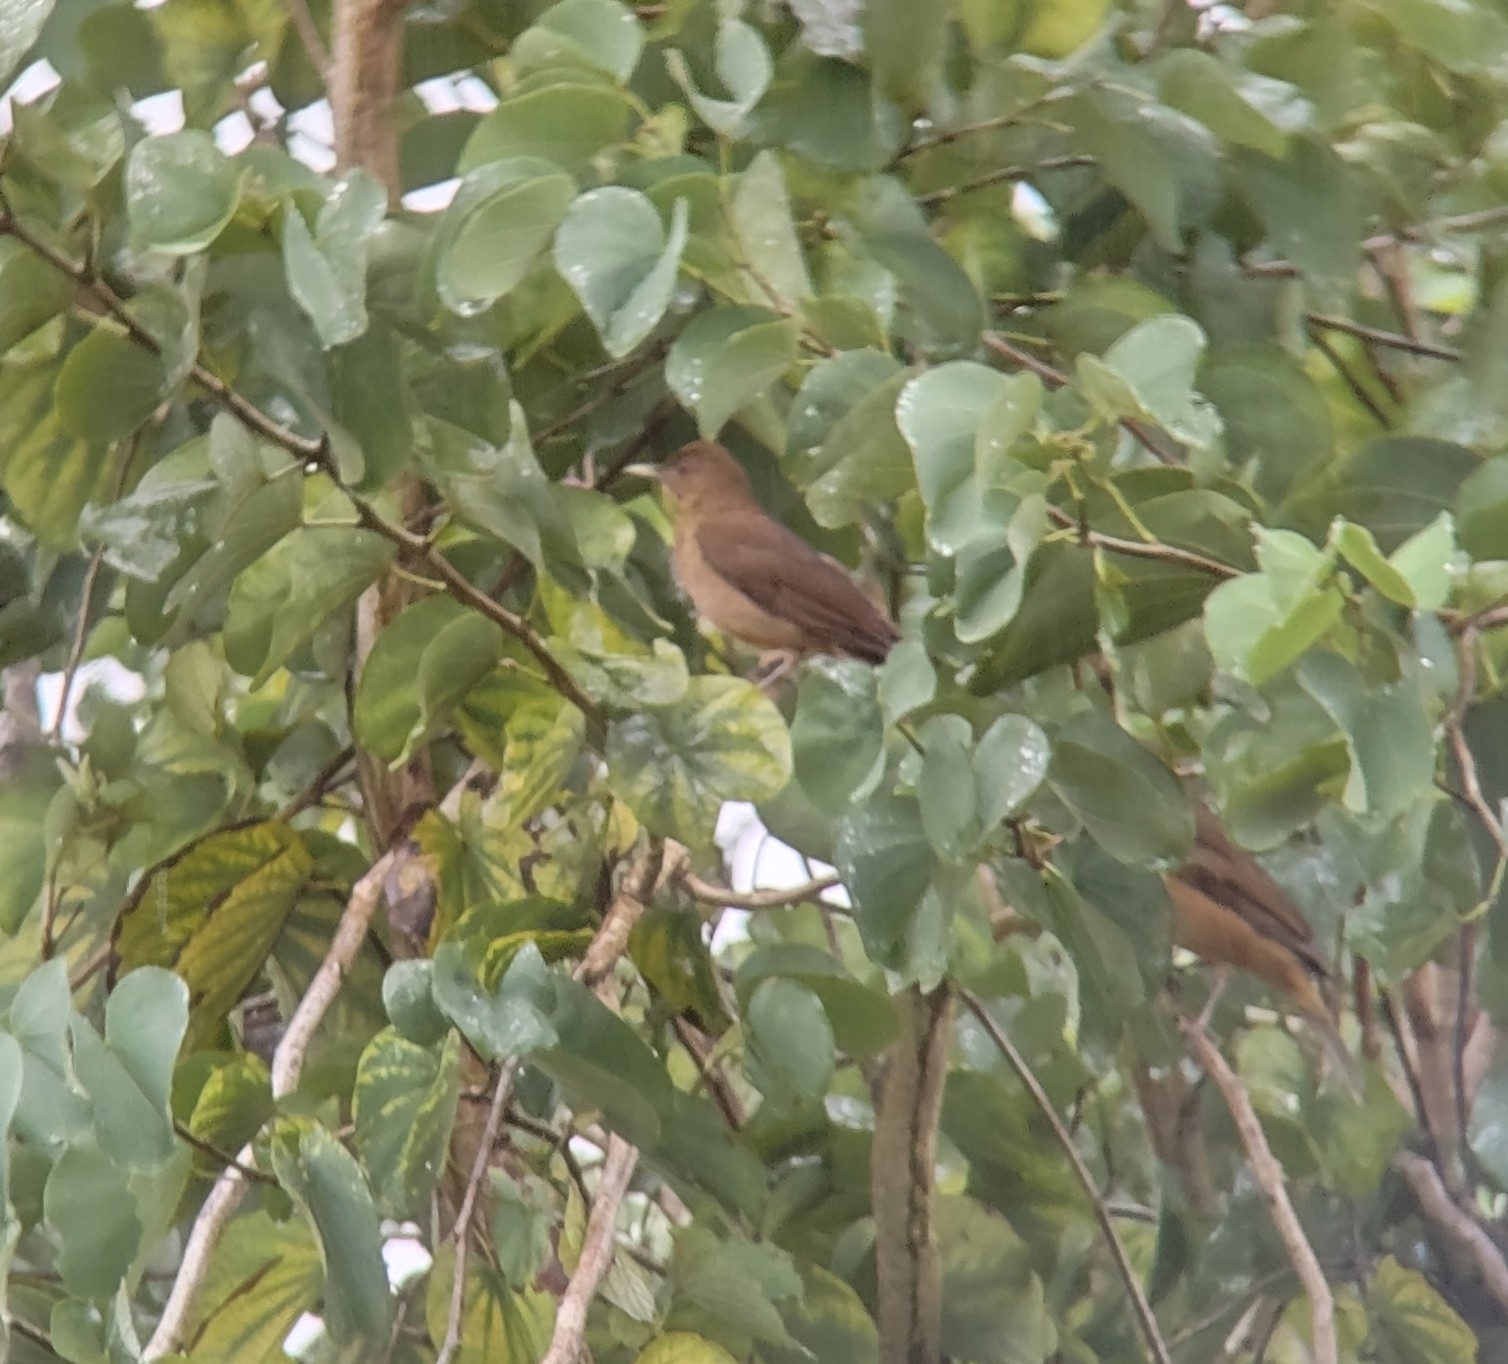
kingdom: Animalia
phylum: Chordata
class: Aves
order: Passeriformes
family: Turdidae
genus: Turdus
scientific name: Turdus grayi
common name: Clay-colored thrush
